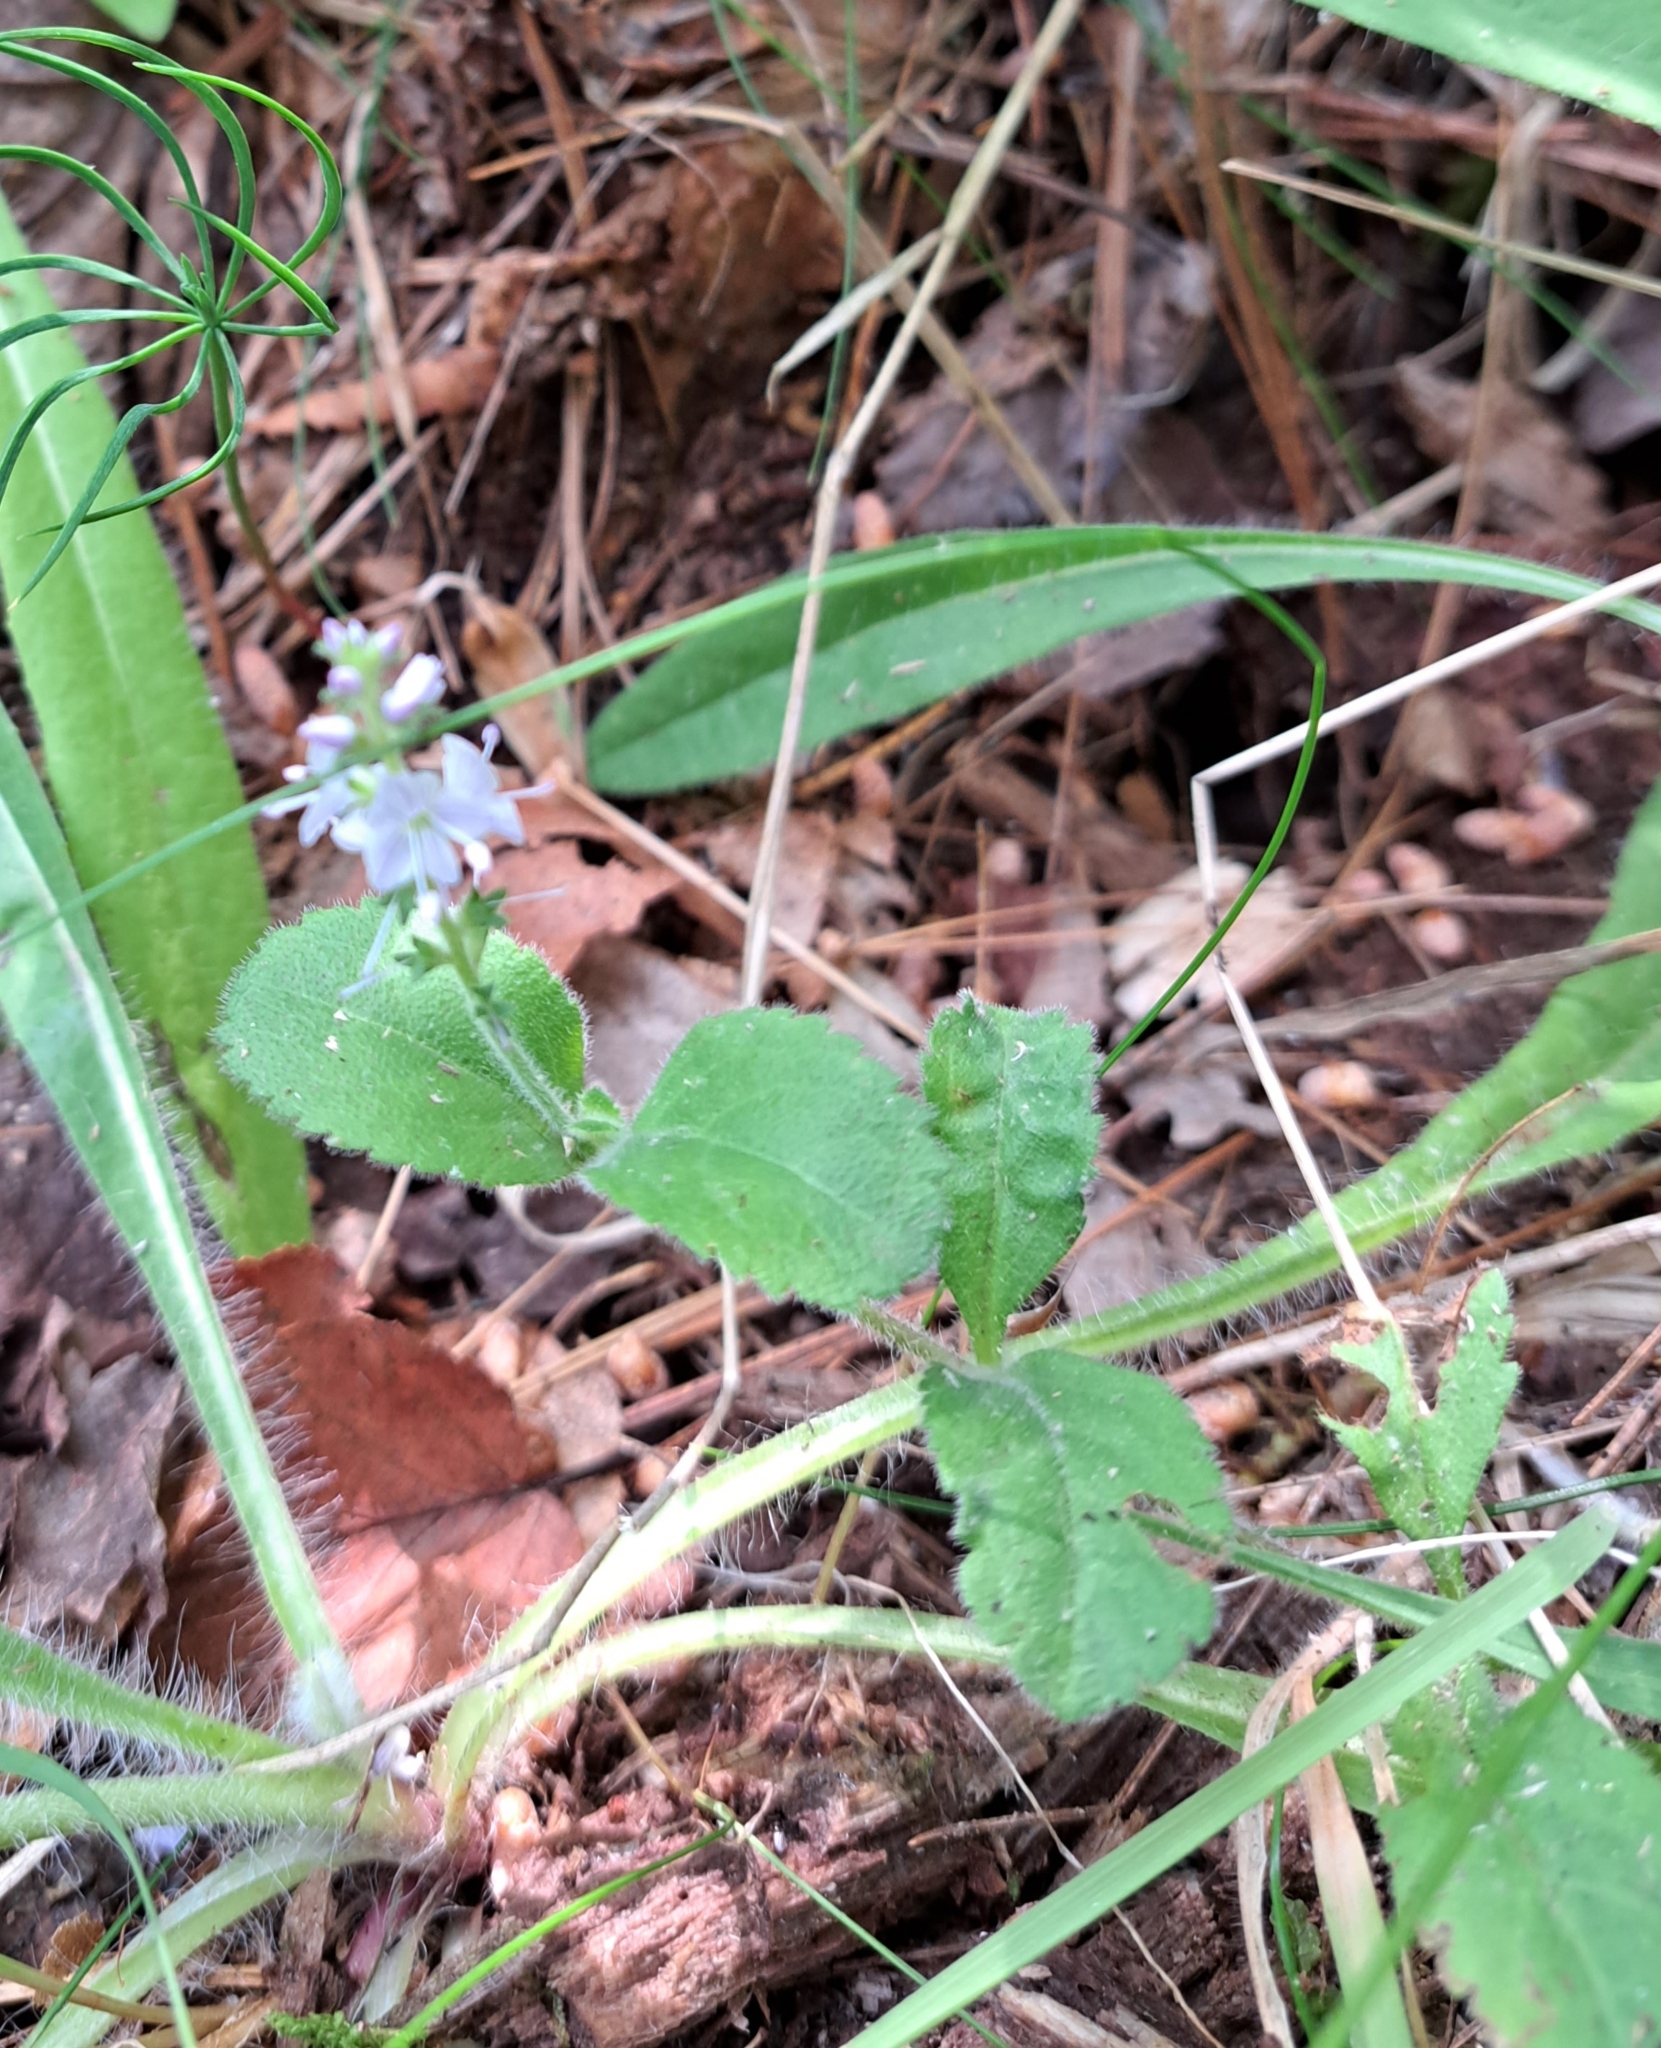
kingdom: Plantae
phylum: Tracheophyta
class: Magnoliopsida
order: Lamiales
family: Plantaginaceae
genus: Veronica
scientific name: Veronica officinalis
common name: Common speedwell
